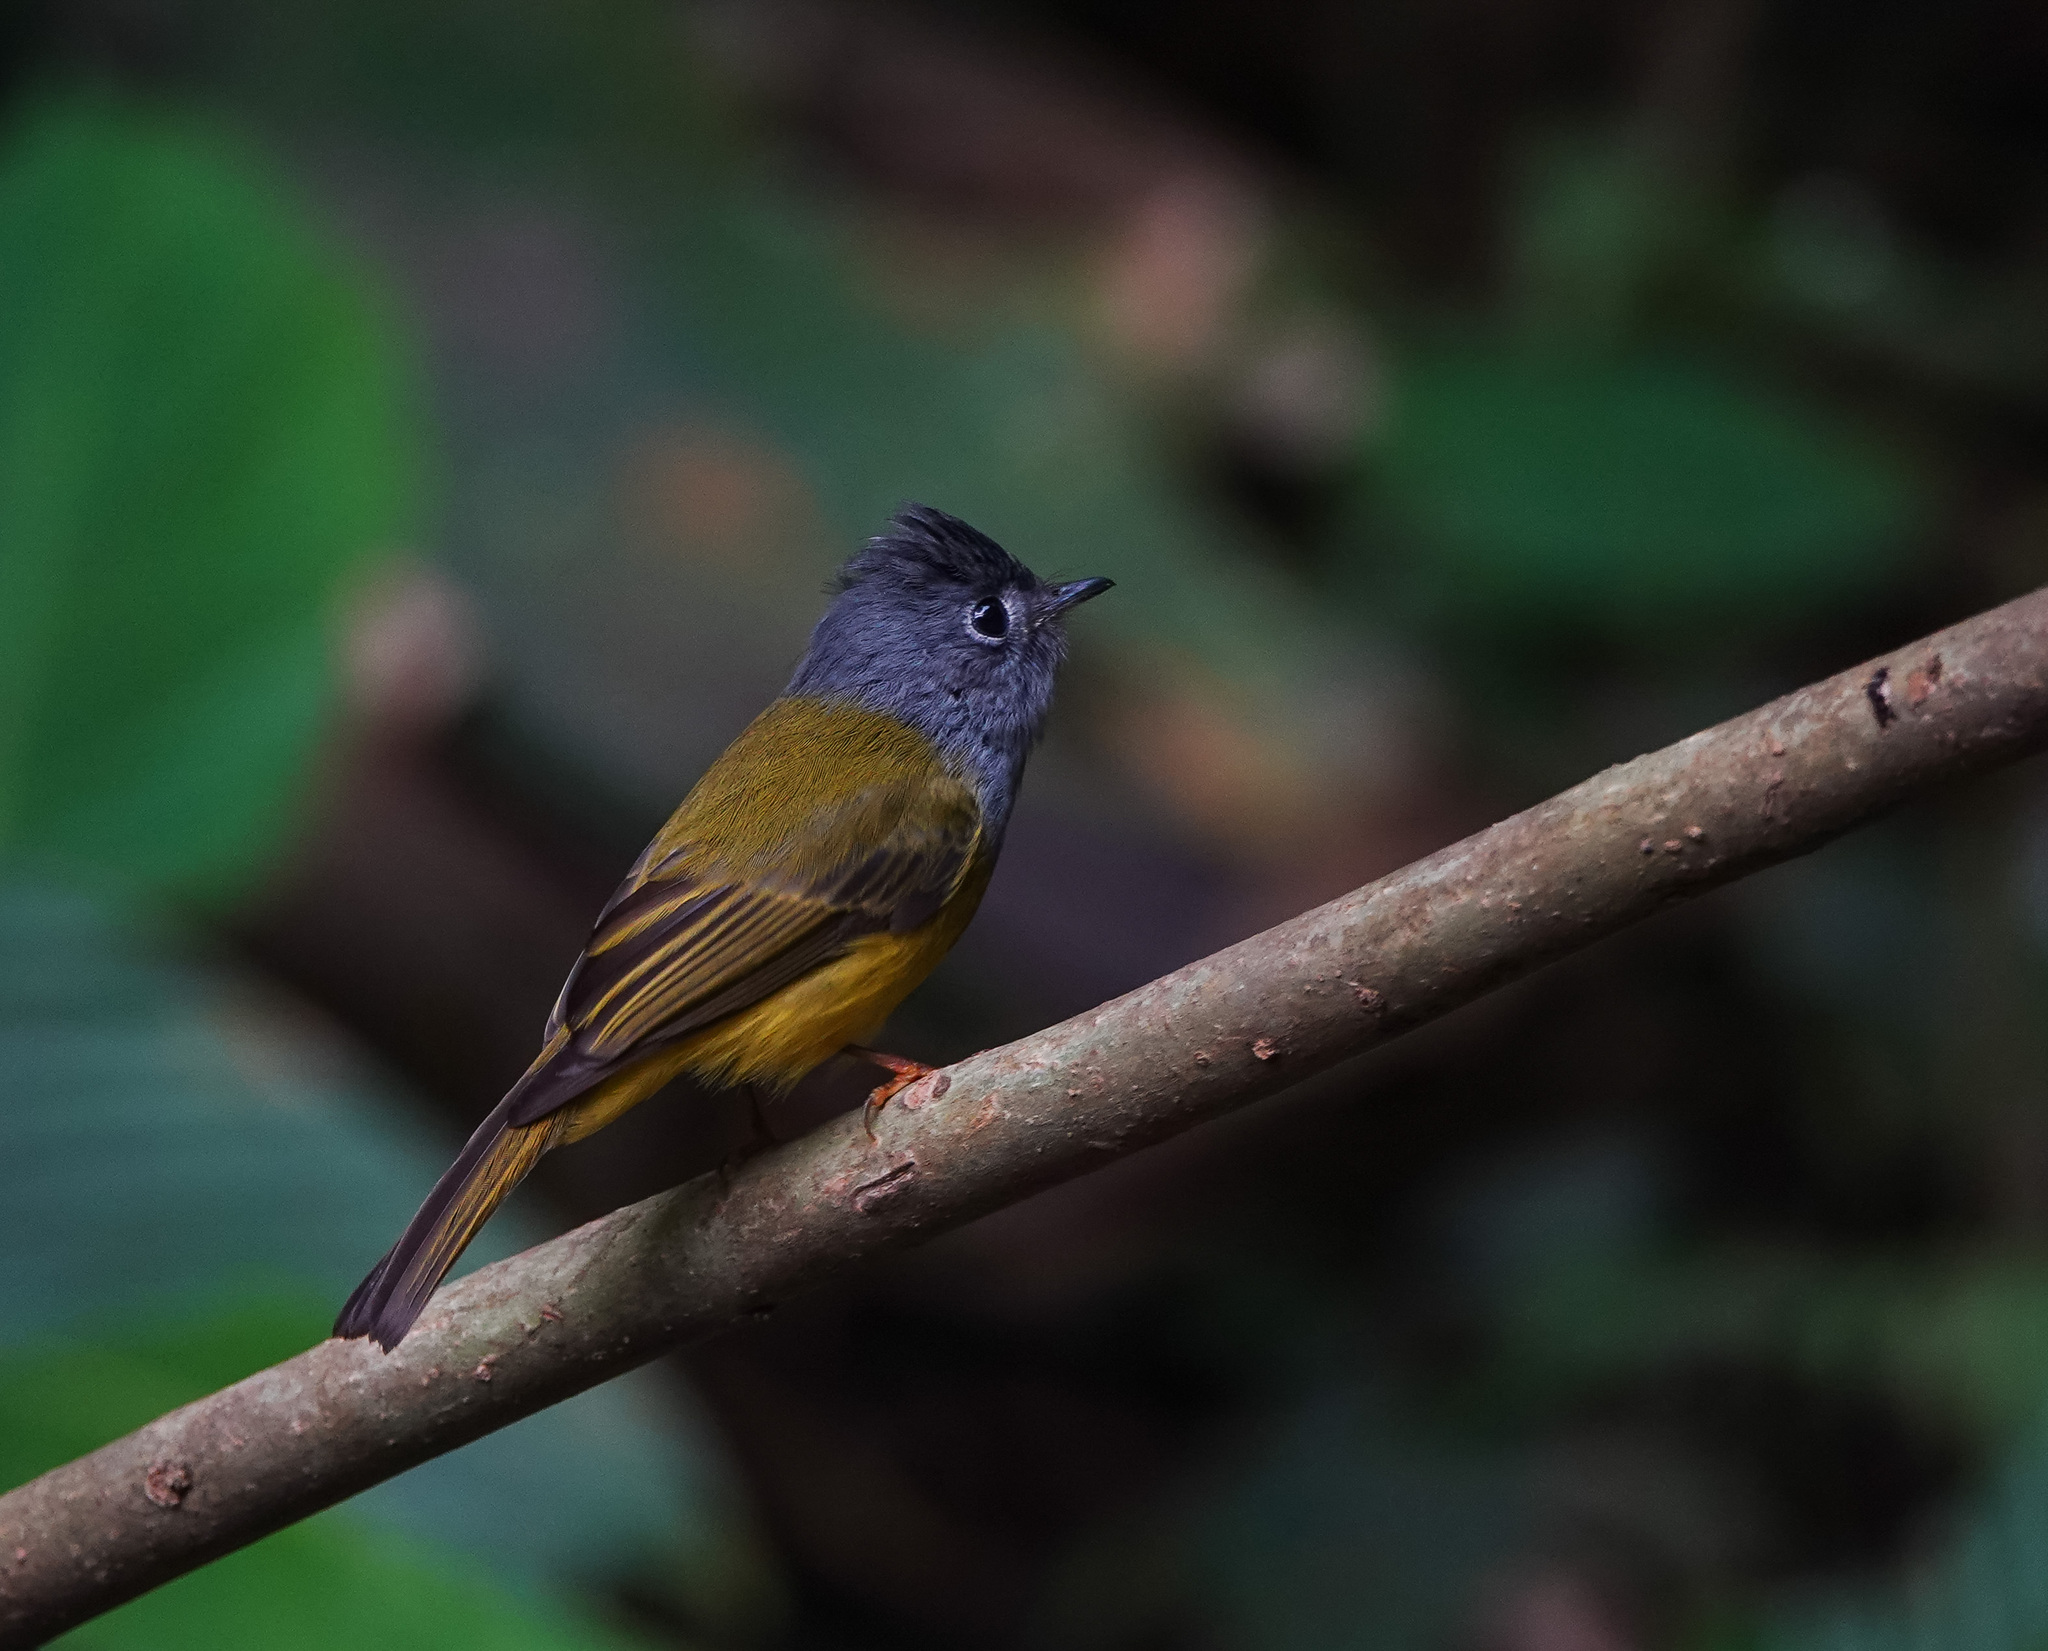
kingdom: Animalia
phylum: Chordata
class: Aves
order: Passeriformes
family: Stenostiridae
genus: Culicicapa
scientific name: Culicicapa ceylonensis
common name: Grey-headed canary-flycatcher
